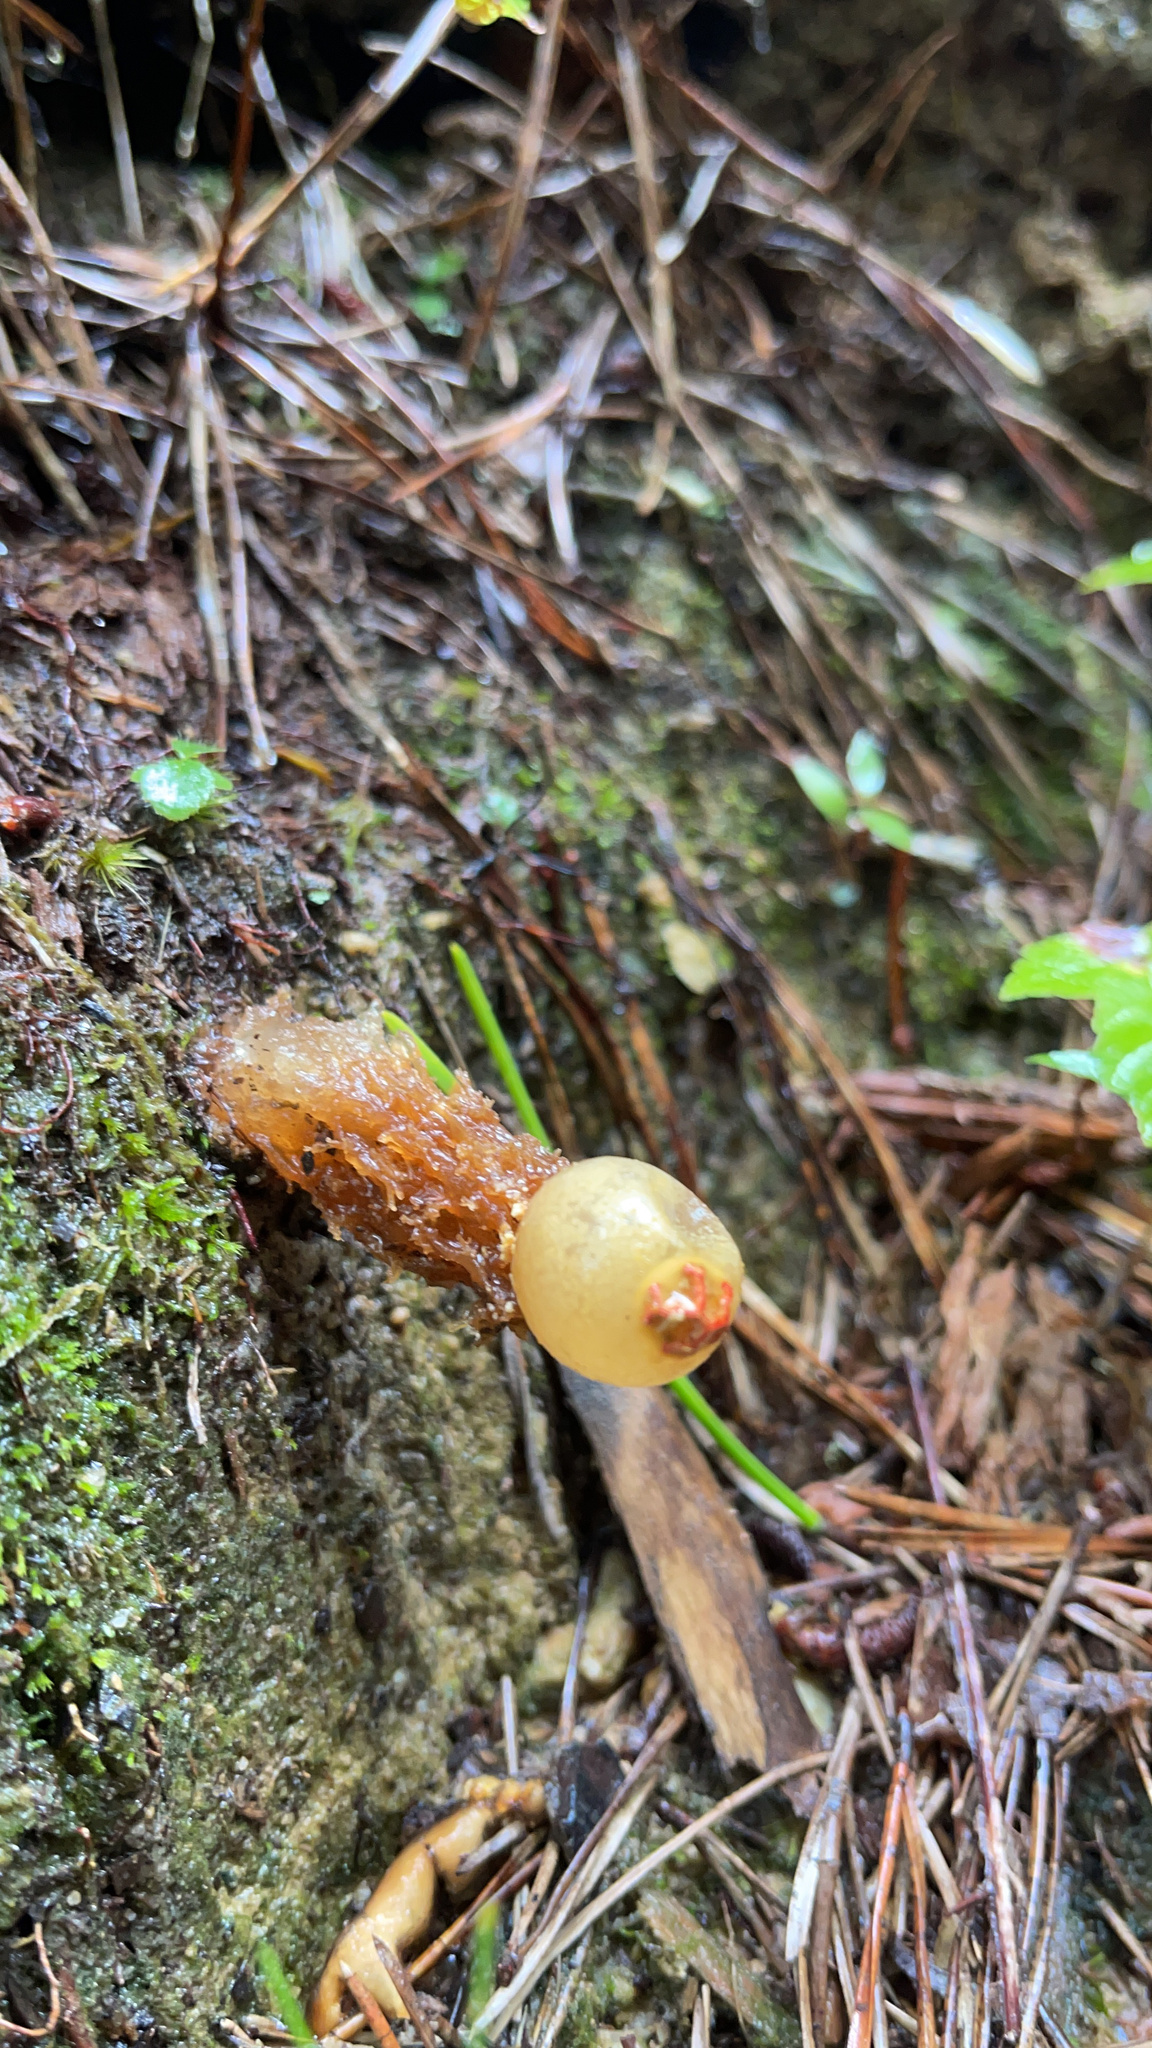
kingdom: Fungi
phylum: Basidiomycota
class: Agaricomycetes
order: Boletales
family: Calostomataceae
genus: Calostoma
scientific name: Calostoma ravenelii
